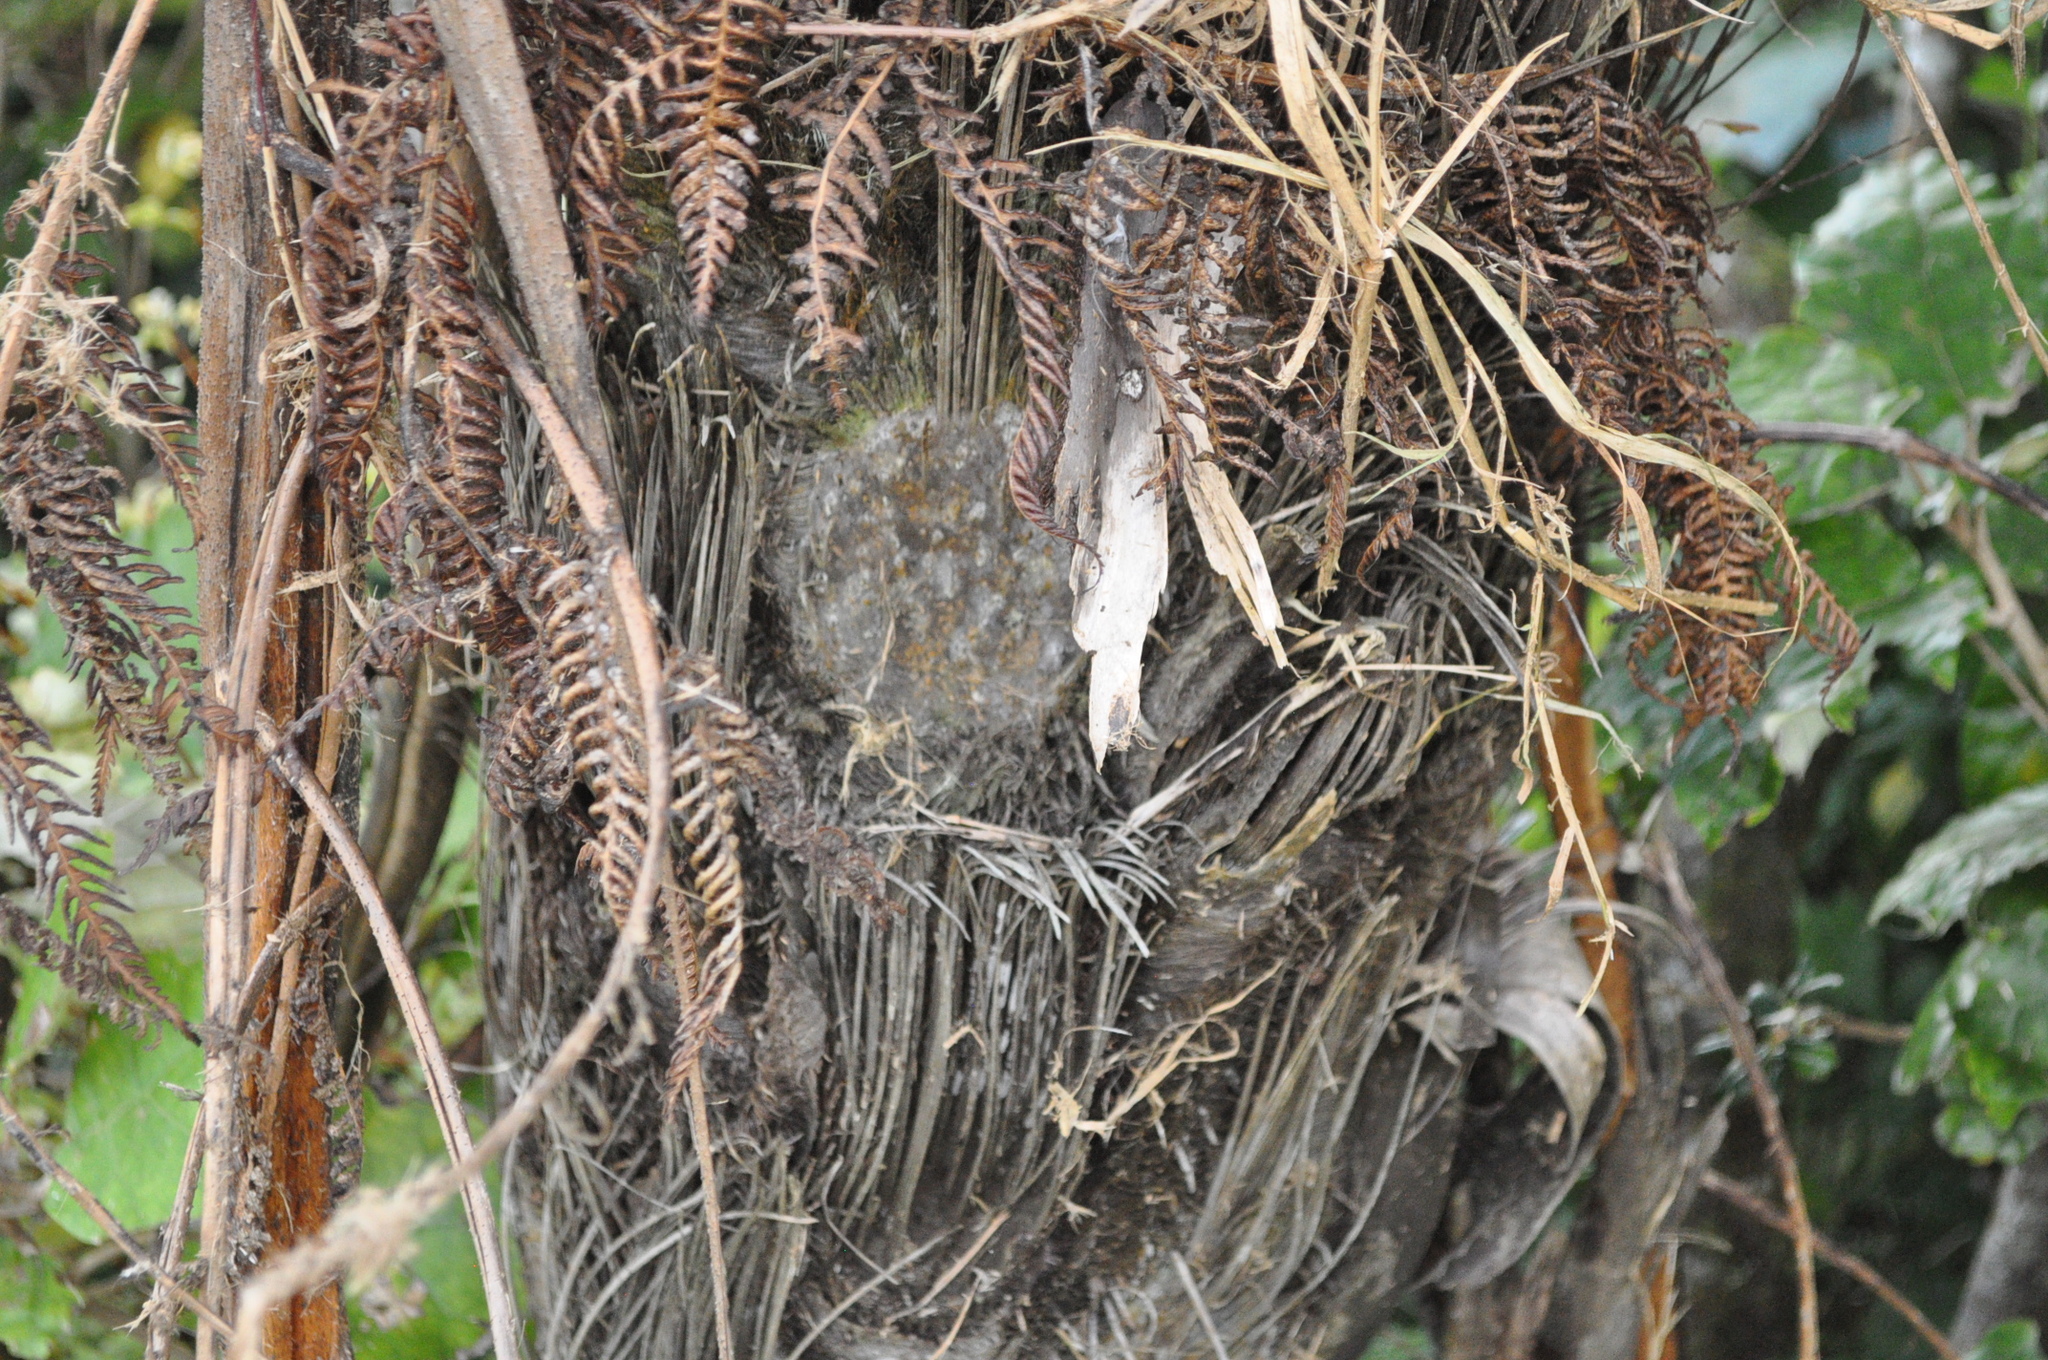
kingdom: Plantae
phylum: Tracheophyta
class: Polypodiopsida
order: Cyatheales
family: Cyatheaceae
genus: Sphaeropteris
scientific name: Sphaeropteris medullaris
